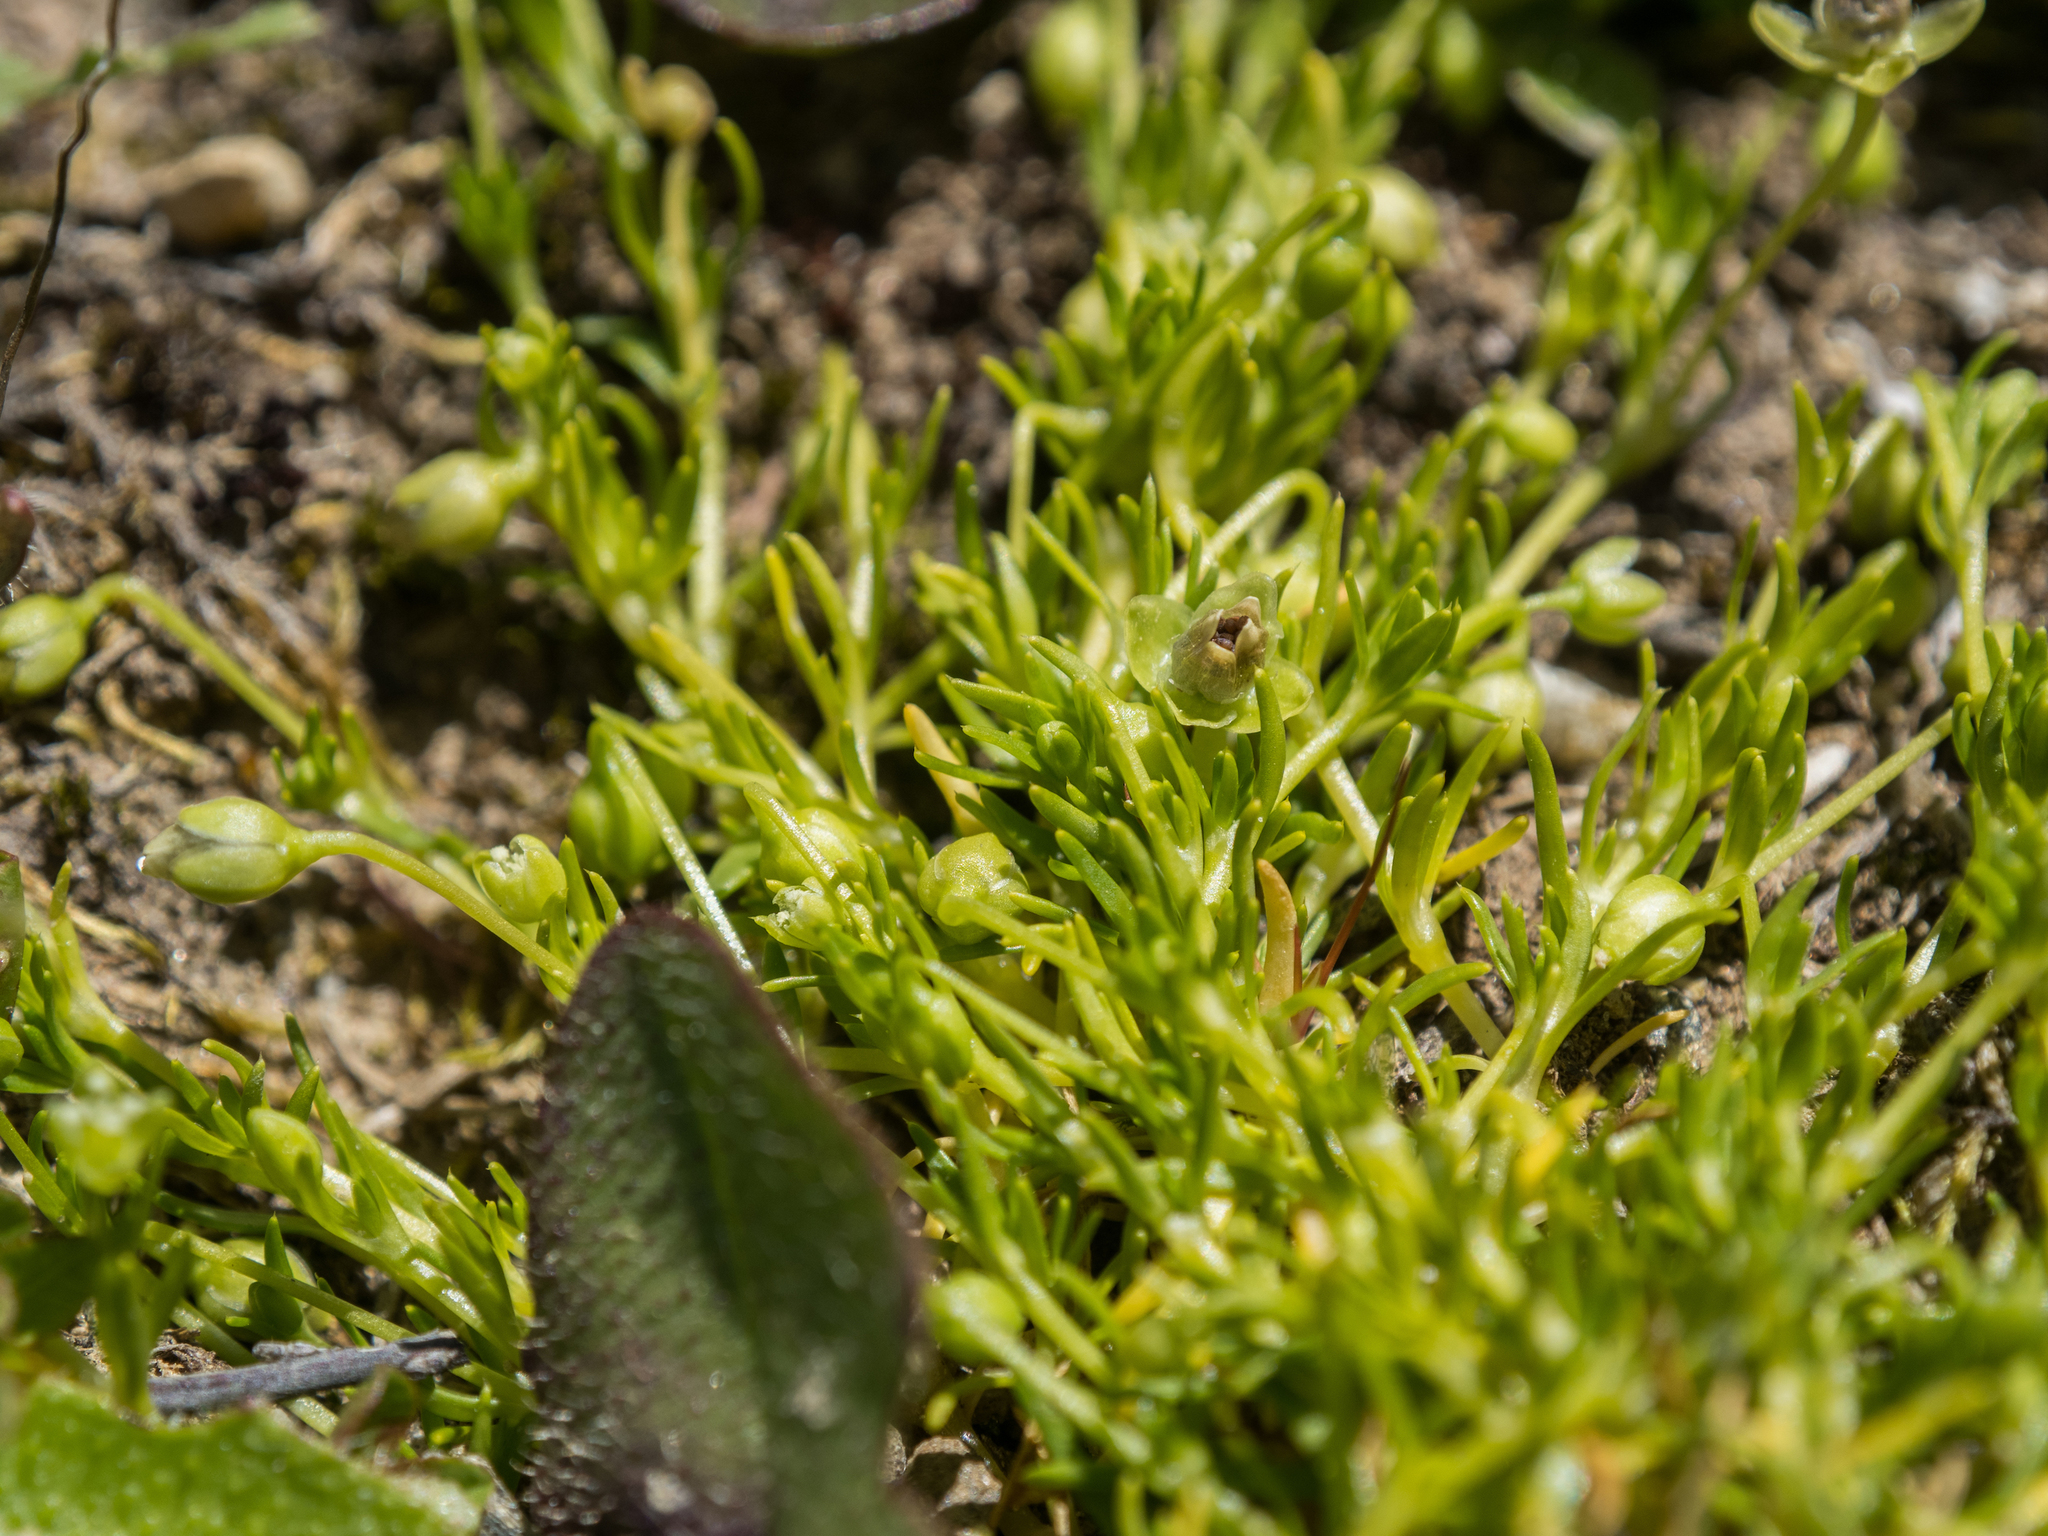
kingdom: Plantae
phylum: Tracheophyta
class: Magnoliopsida
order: Caryophyllales
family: Caryophyllaceae
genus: Sagina
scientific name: Sagina procumbens
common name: Procumbent pearlwort
